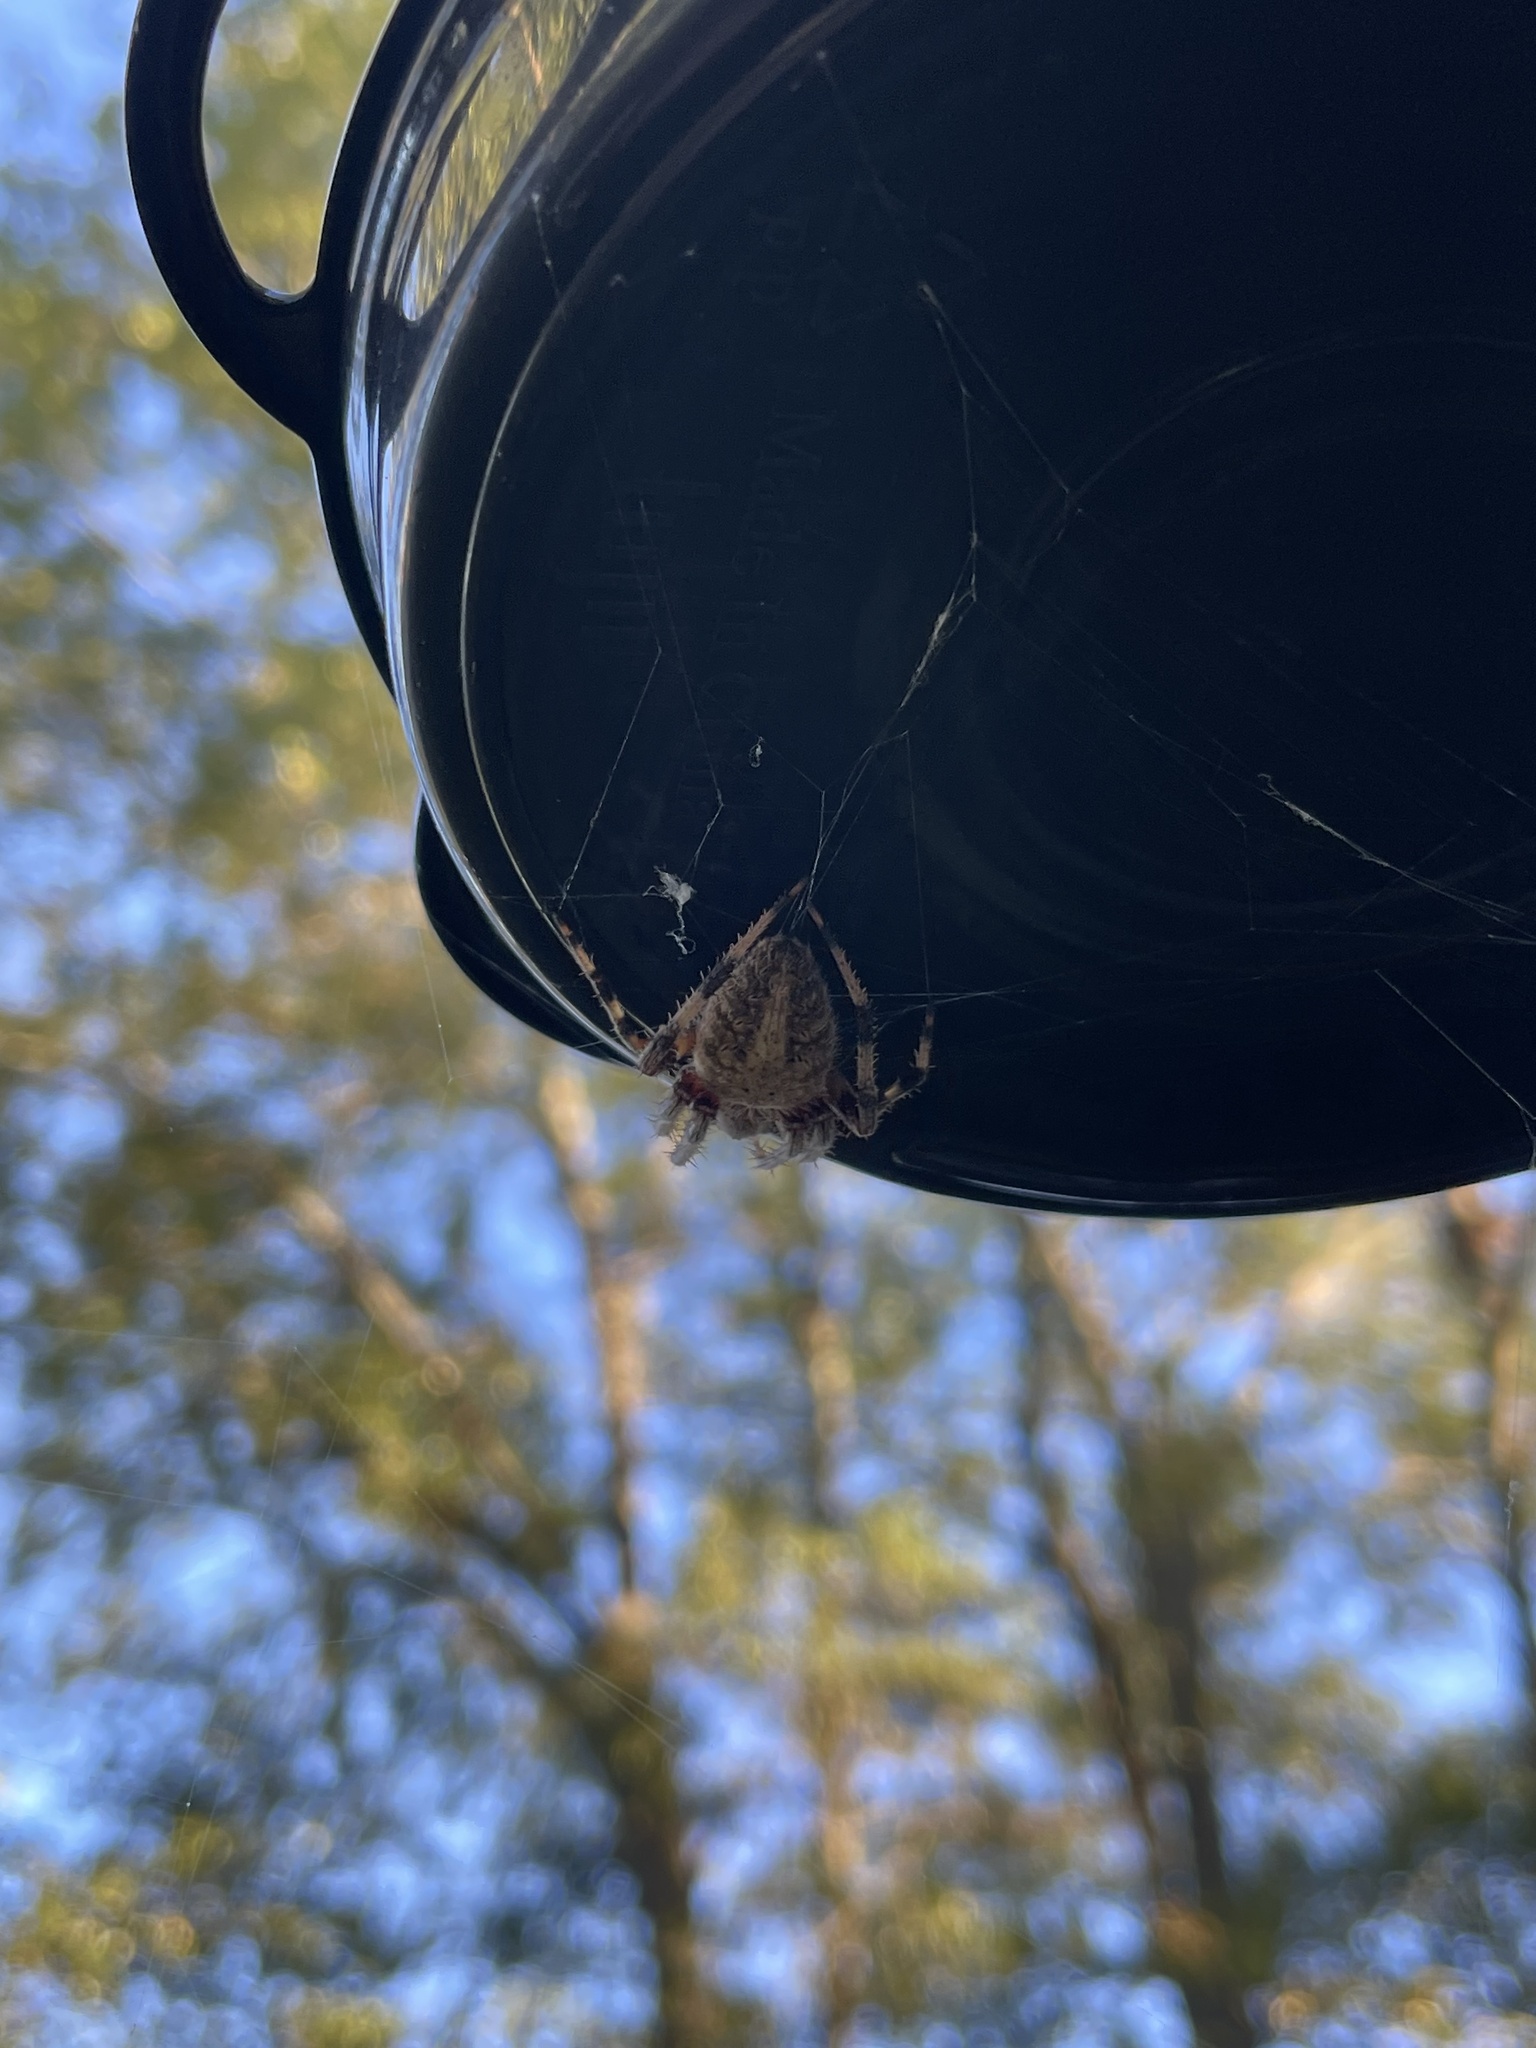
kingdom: Animalia
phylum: Arthropoda
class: Arachnida
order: Araneae
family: Araneidae
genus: Neoscona
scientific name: Neoscona crucifera
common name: Spotted orbweaver
